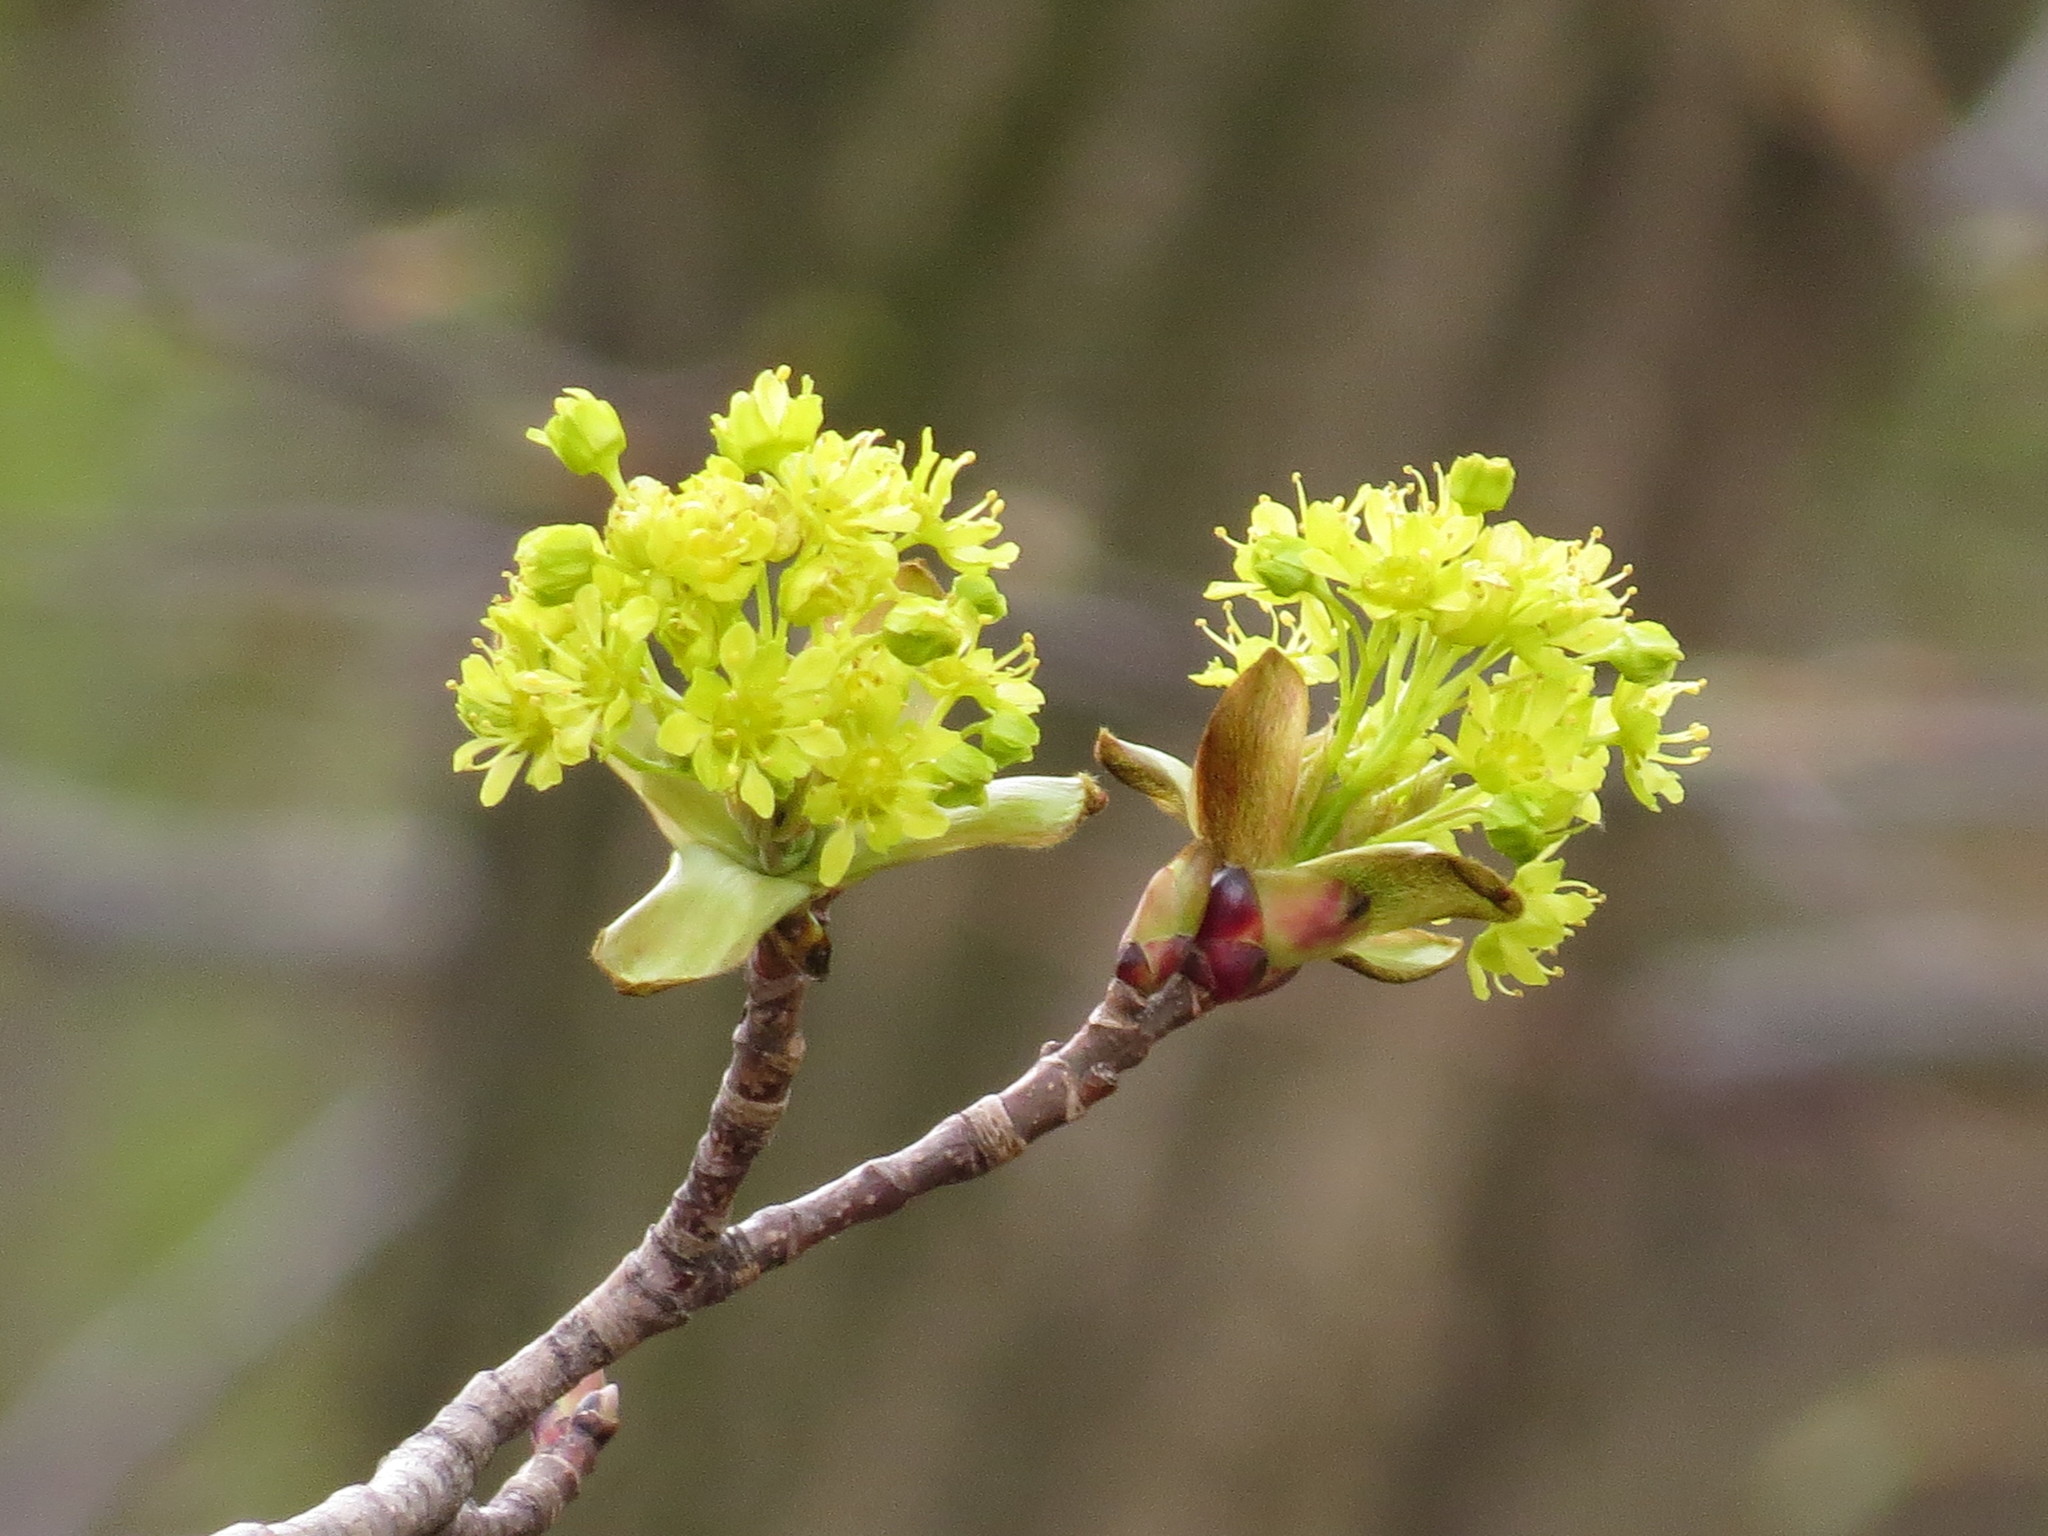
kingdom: Plantae
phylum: Tracheophyta
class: Magnoliopsida
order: Sapindales
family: Sapindaceae
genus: Acer
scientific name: Acer platanoides
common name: Norway maple
